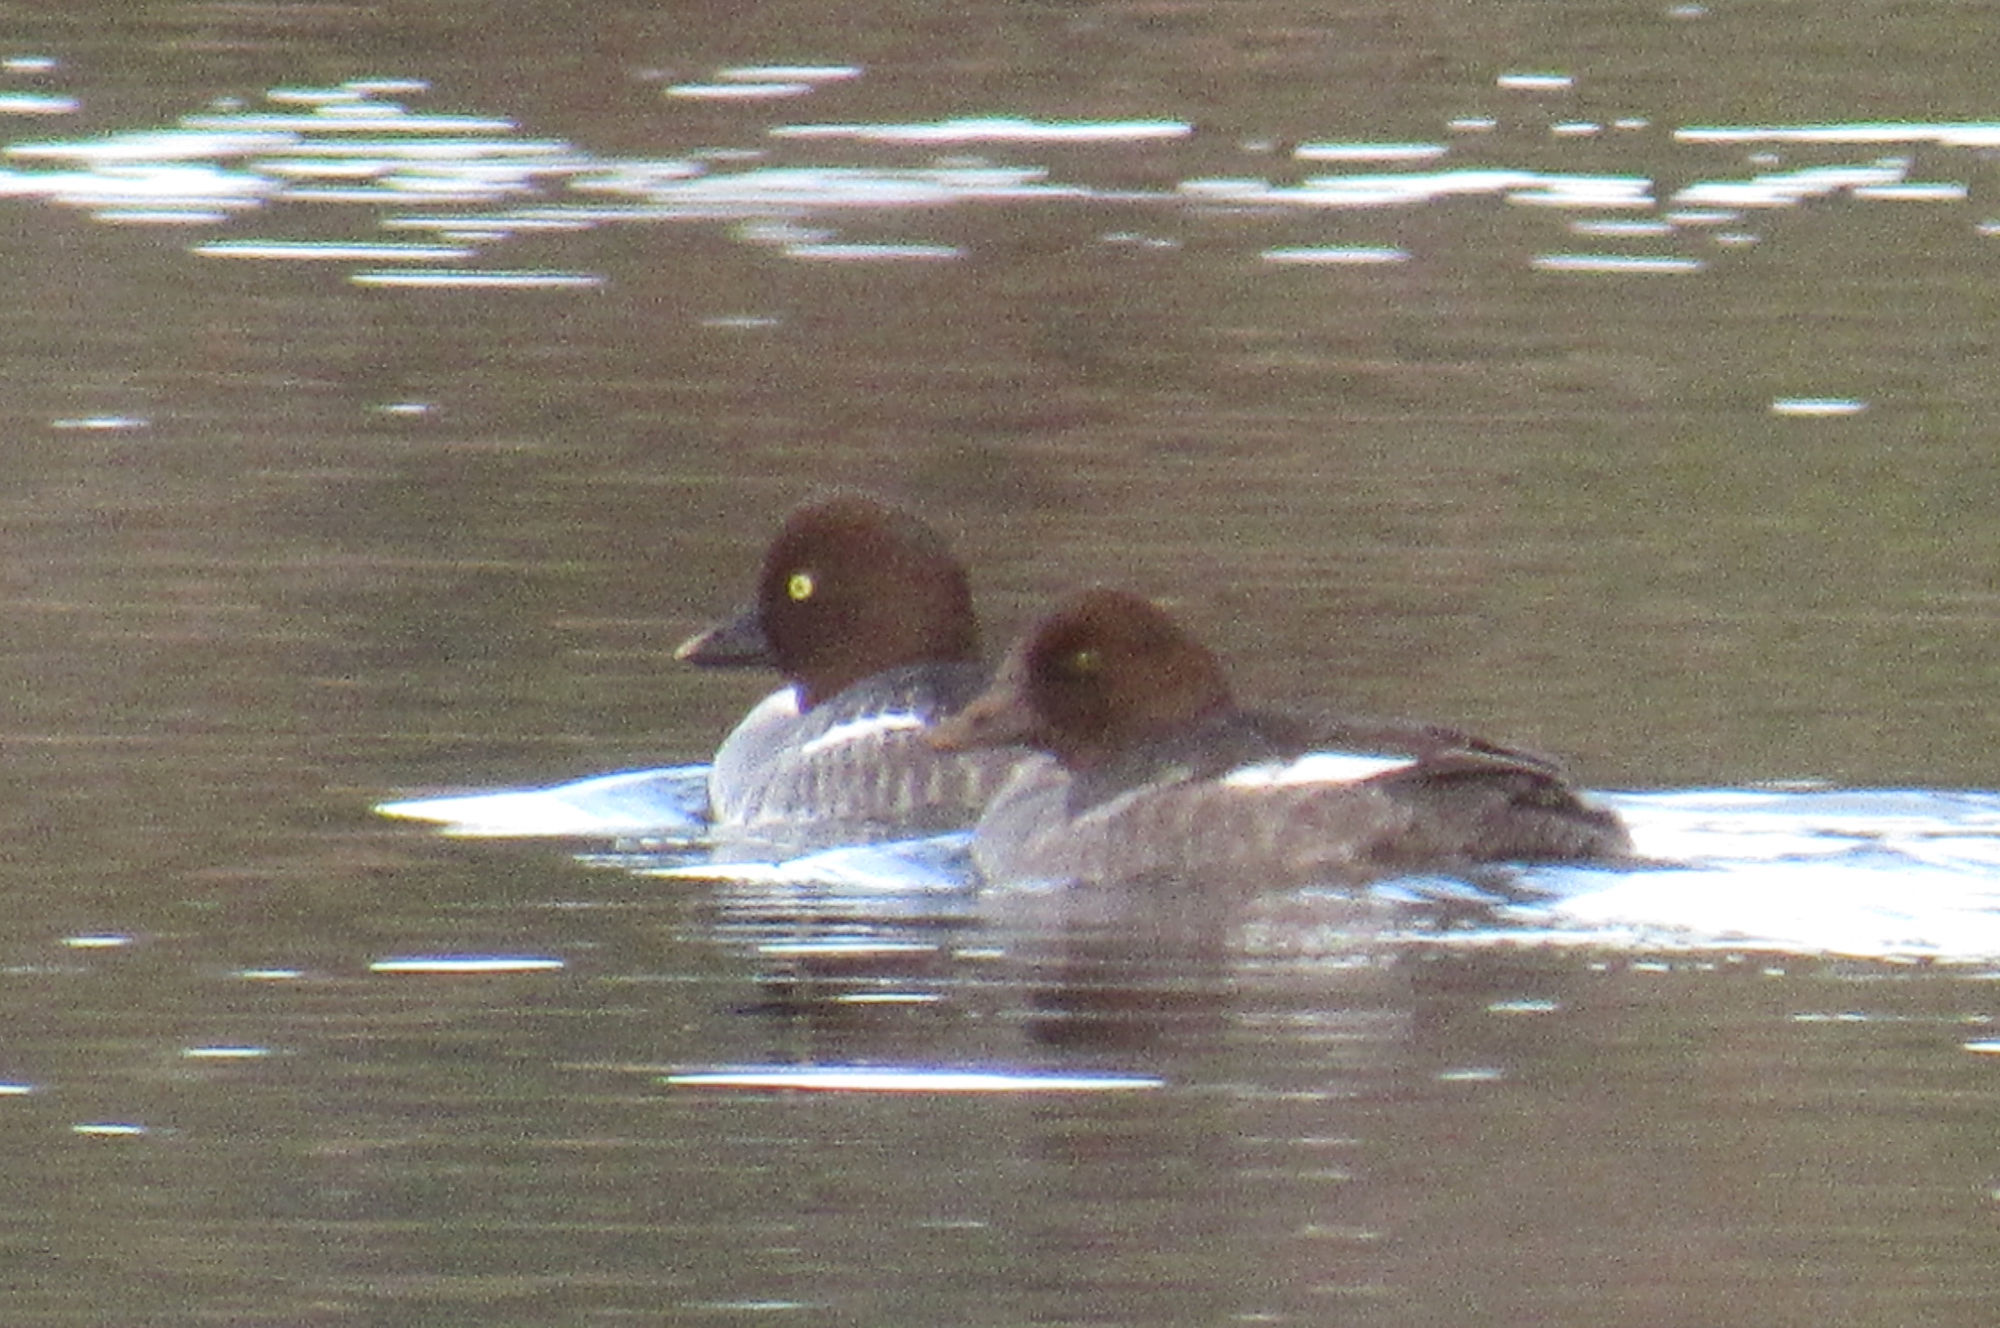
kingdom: Animalia
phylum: Chordata
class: Aves
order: Anseriformes
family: Anatidae
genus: Bucephala
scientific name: Bucephala clangula
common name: Common goldeneye
